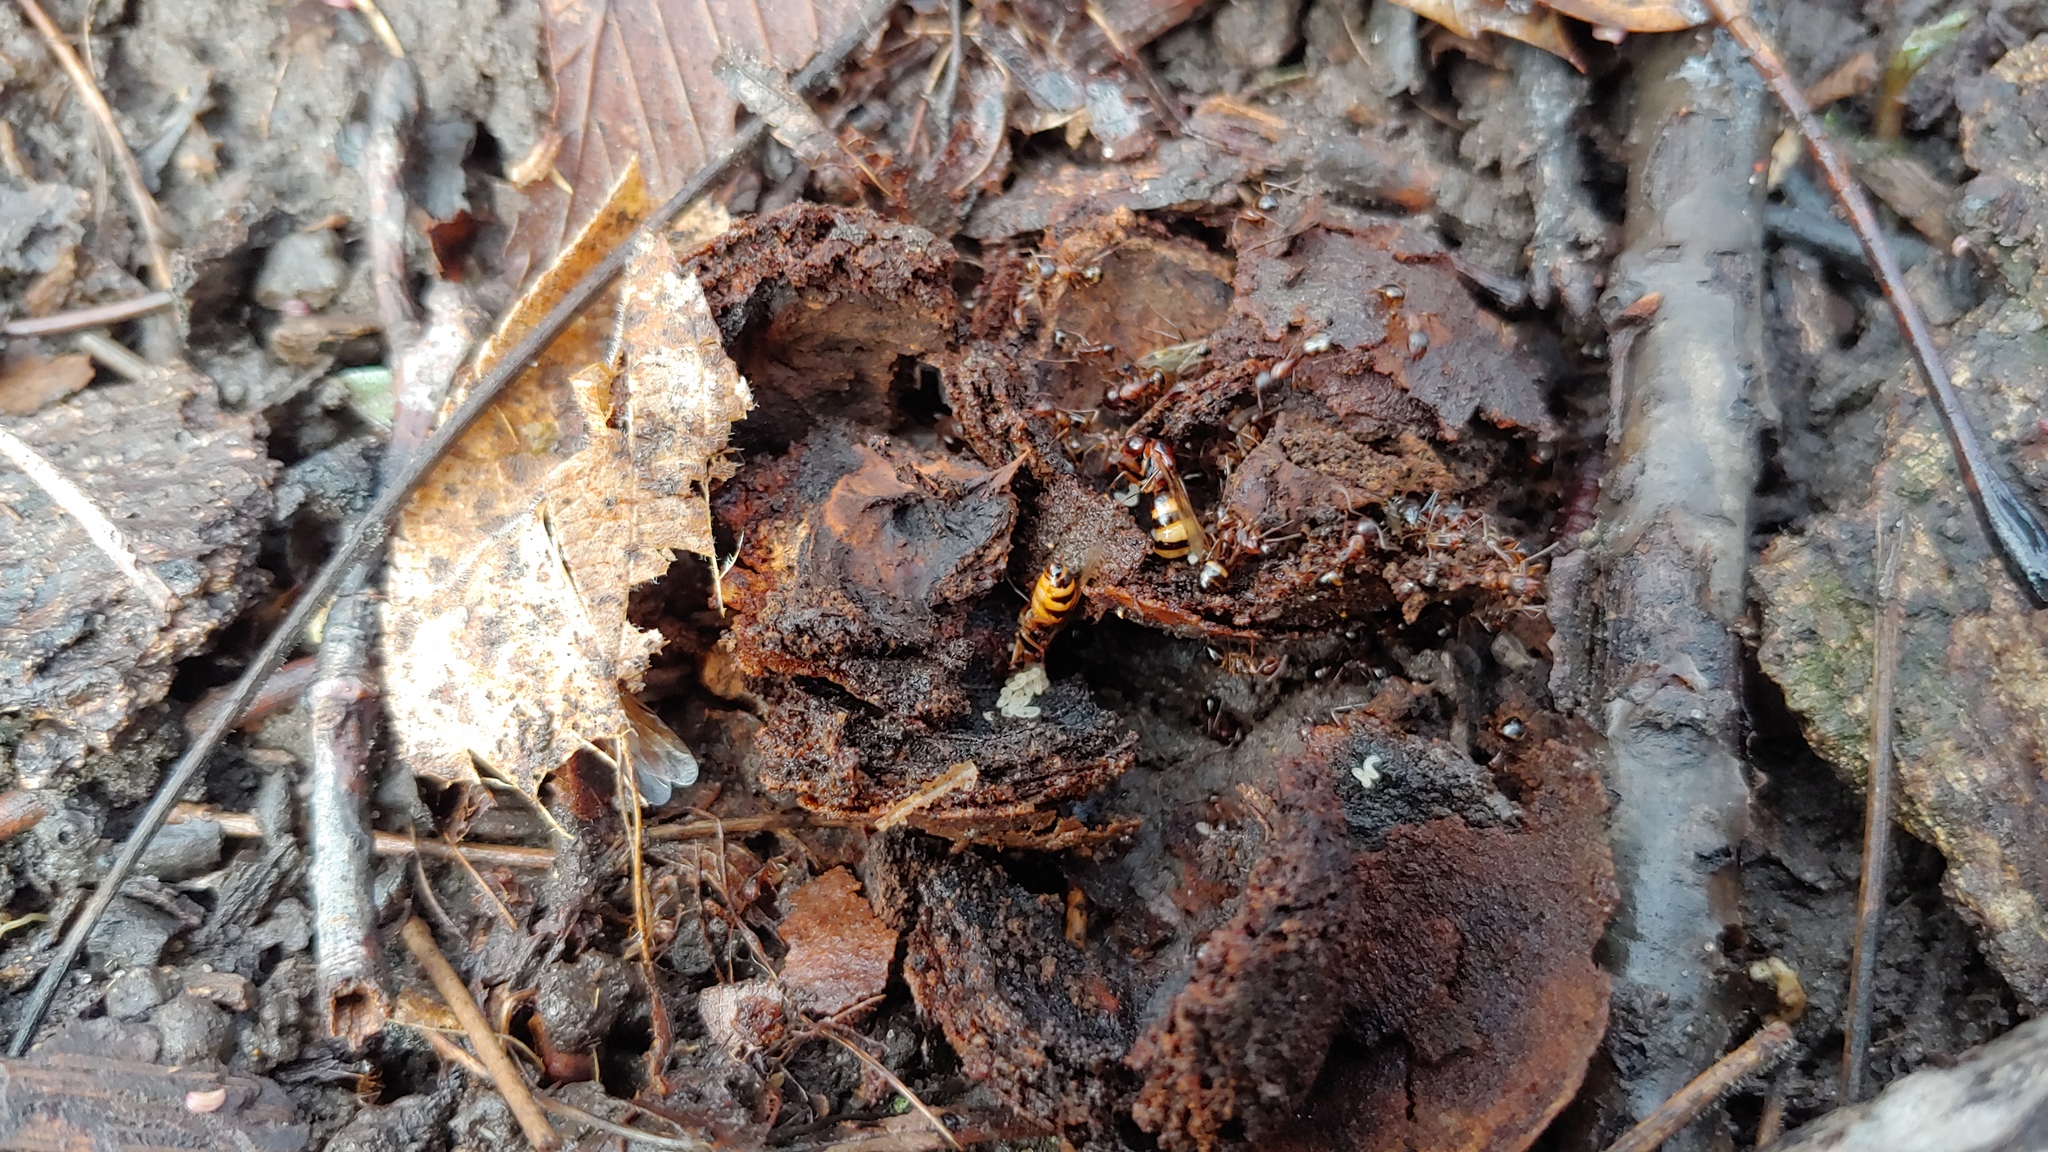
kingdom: Animalia
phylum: Arthropoda
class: Insecta
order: Hymenoptera
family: Formicidae
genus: Camponotus
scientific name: Camponotus subbarbatus
